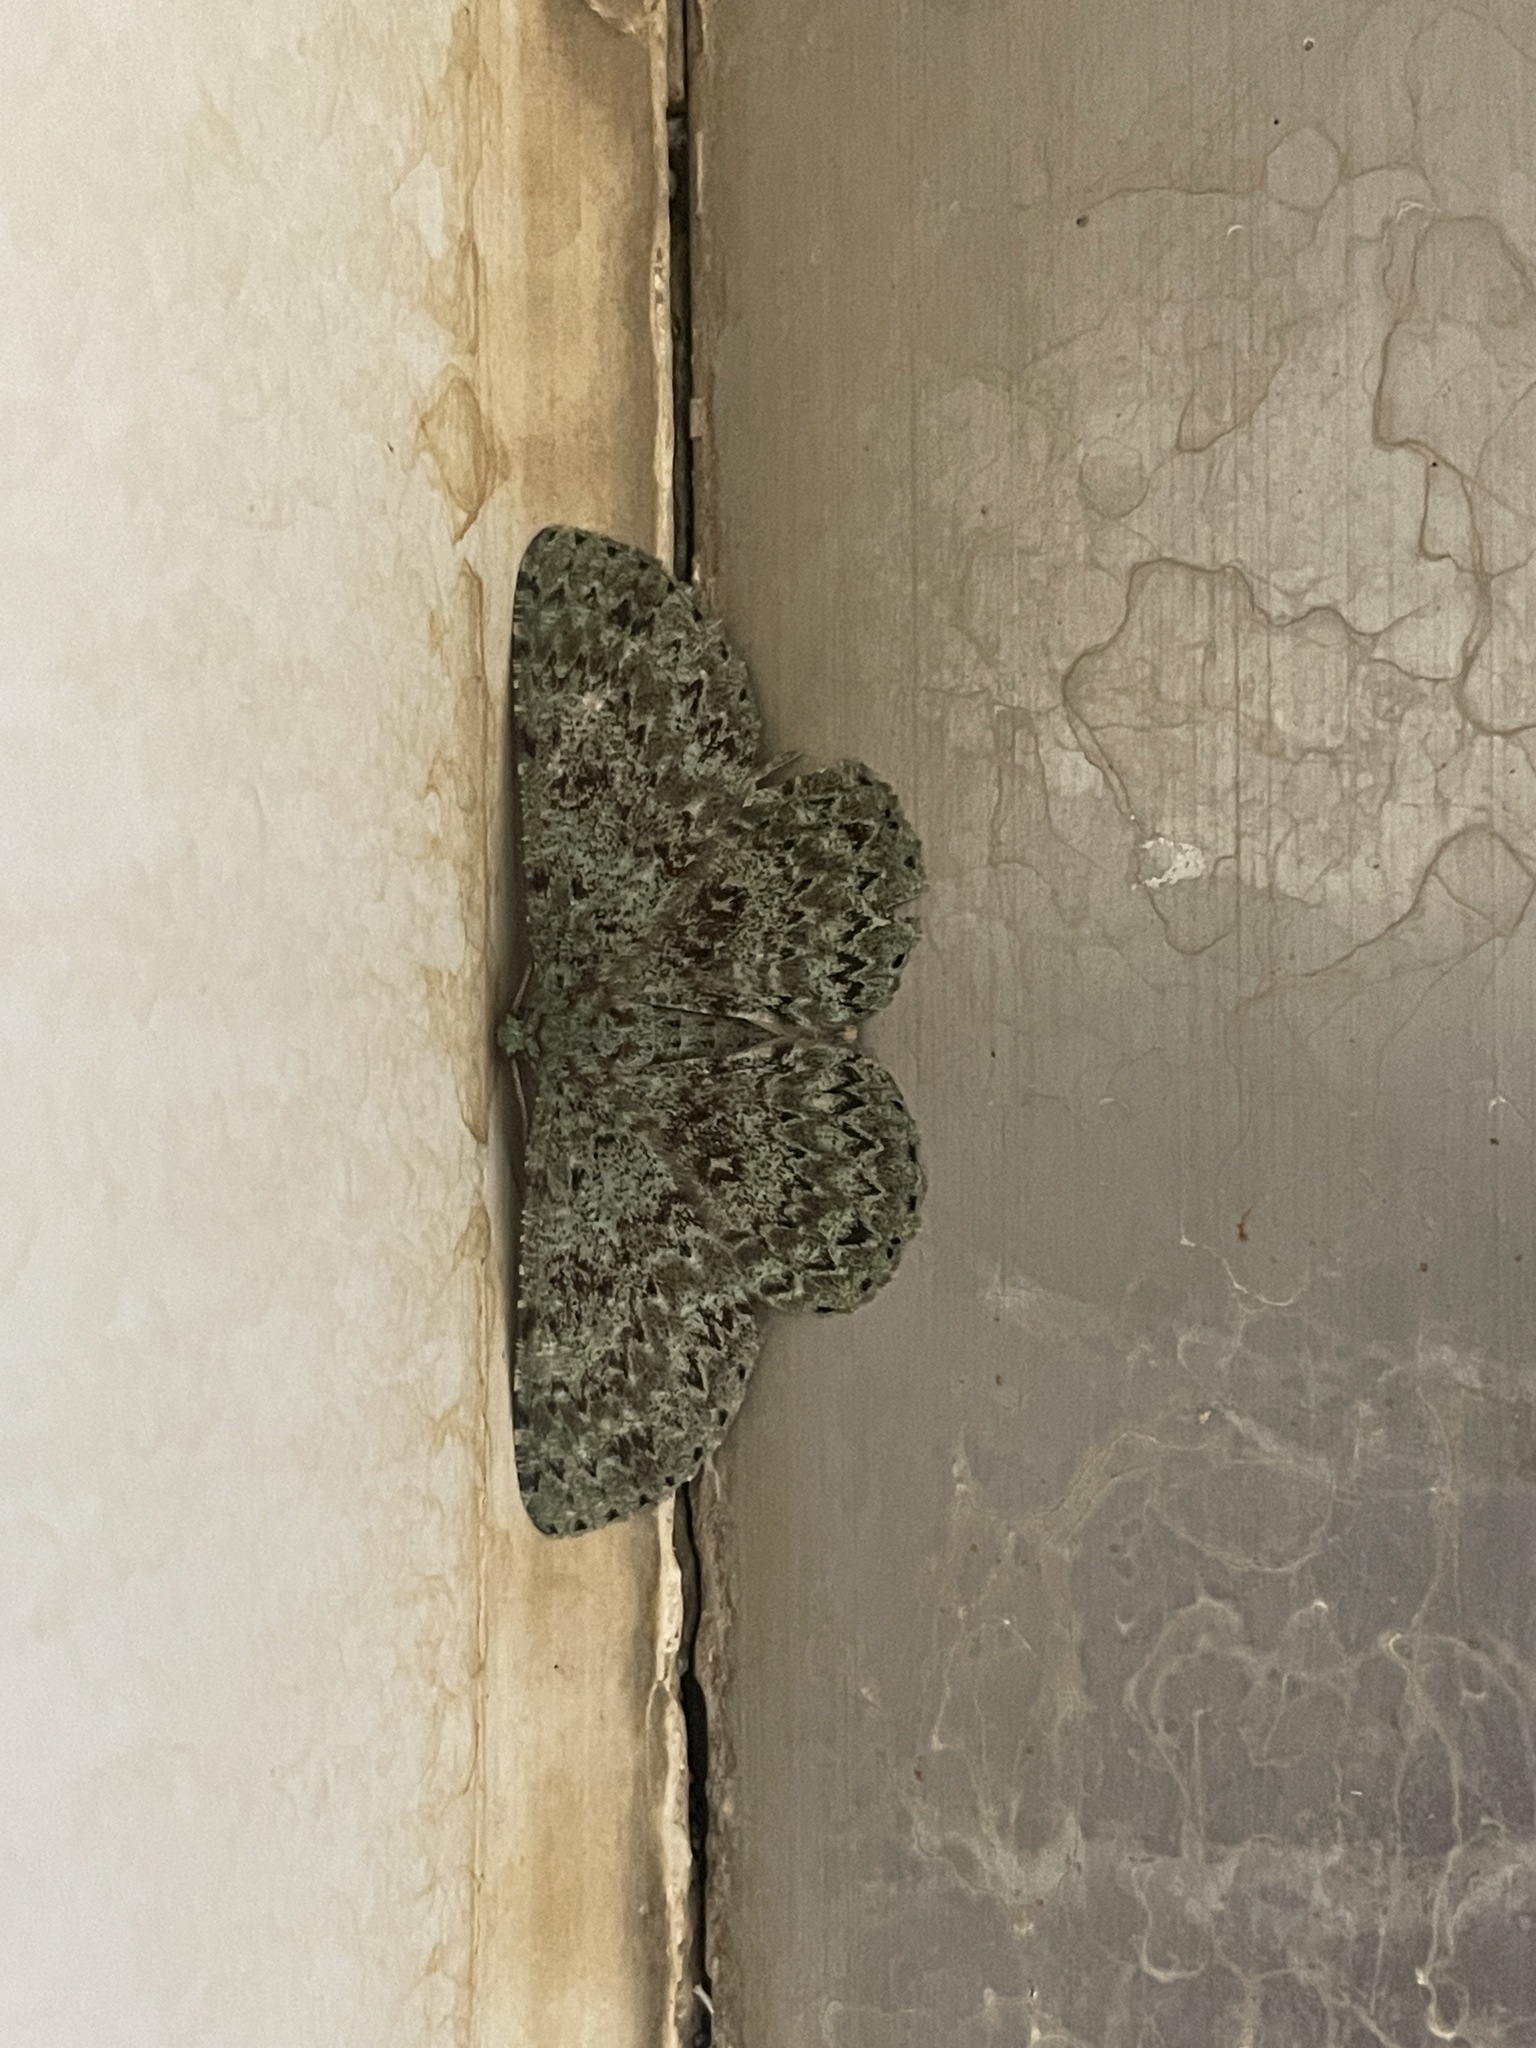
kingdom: Animalia
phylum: Arthropoda
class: Insecta
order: Lepidoptera
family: Geometridae
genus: Ophthalmitis
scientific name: Ophthalmitis herbidaria
